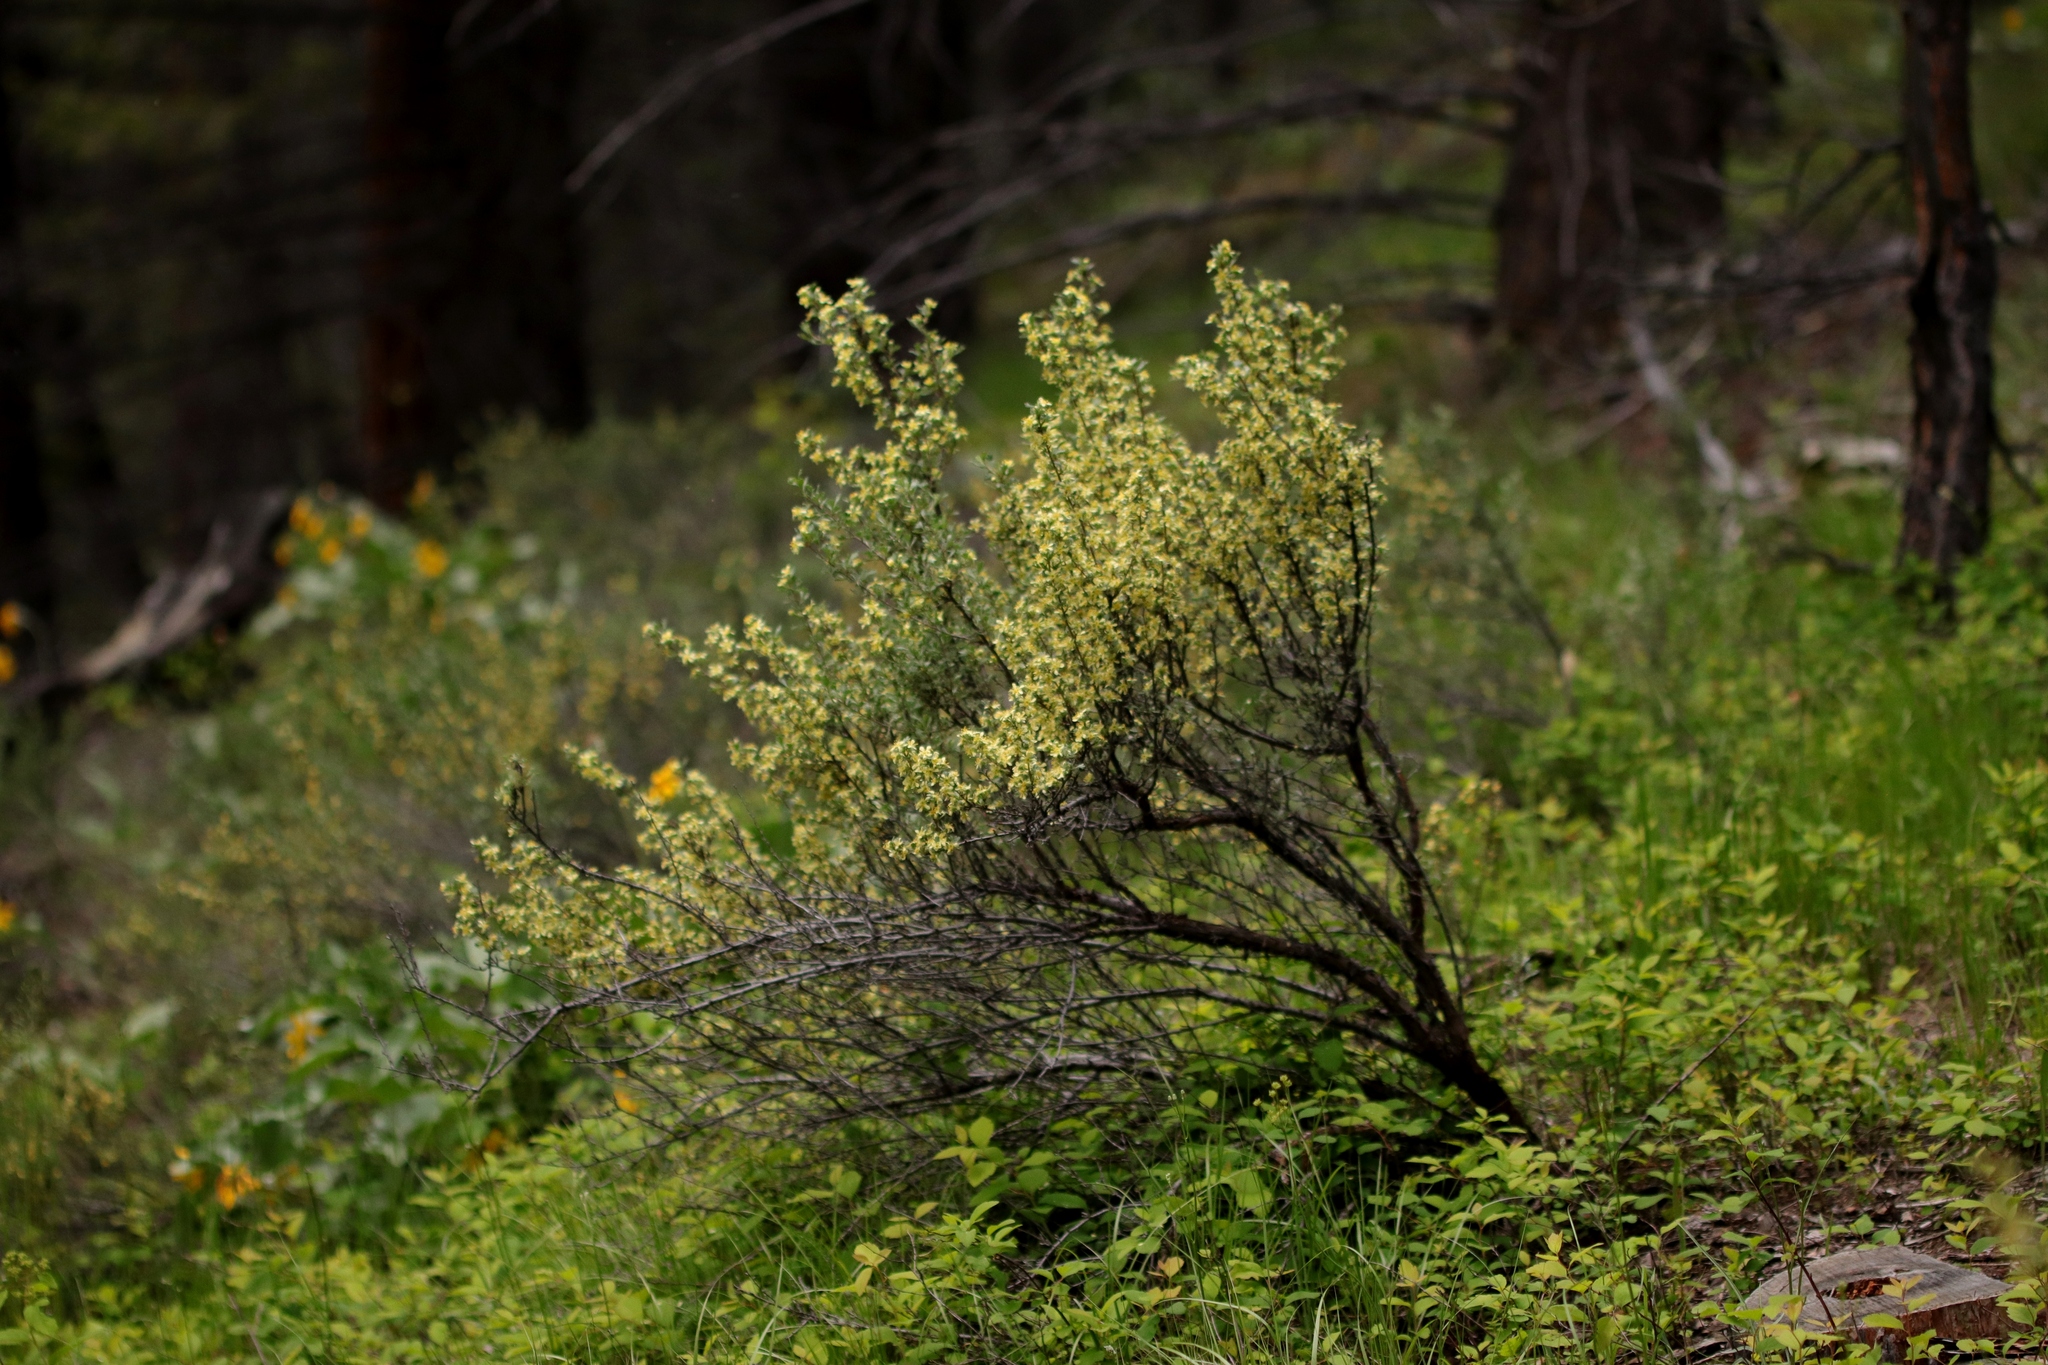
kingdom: Plantae
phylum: Tracheophyta
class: Magnoliopsida
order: Rosales
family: Rosaceae
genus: Purshia
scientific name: Purshia tridentata
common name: Antelope bitterbrush
